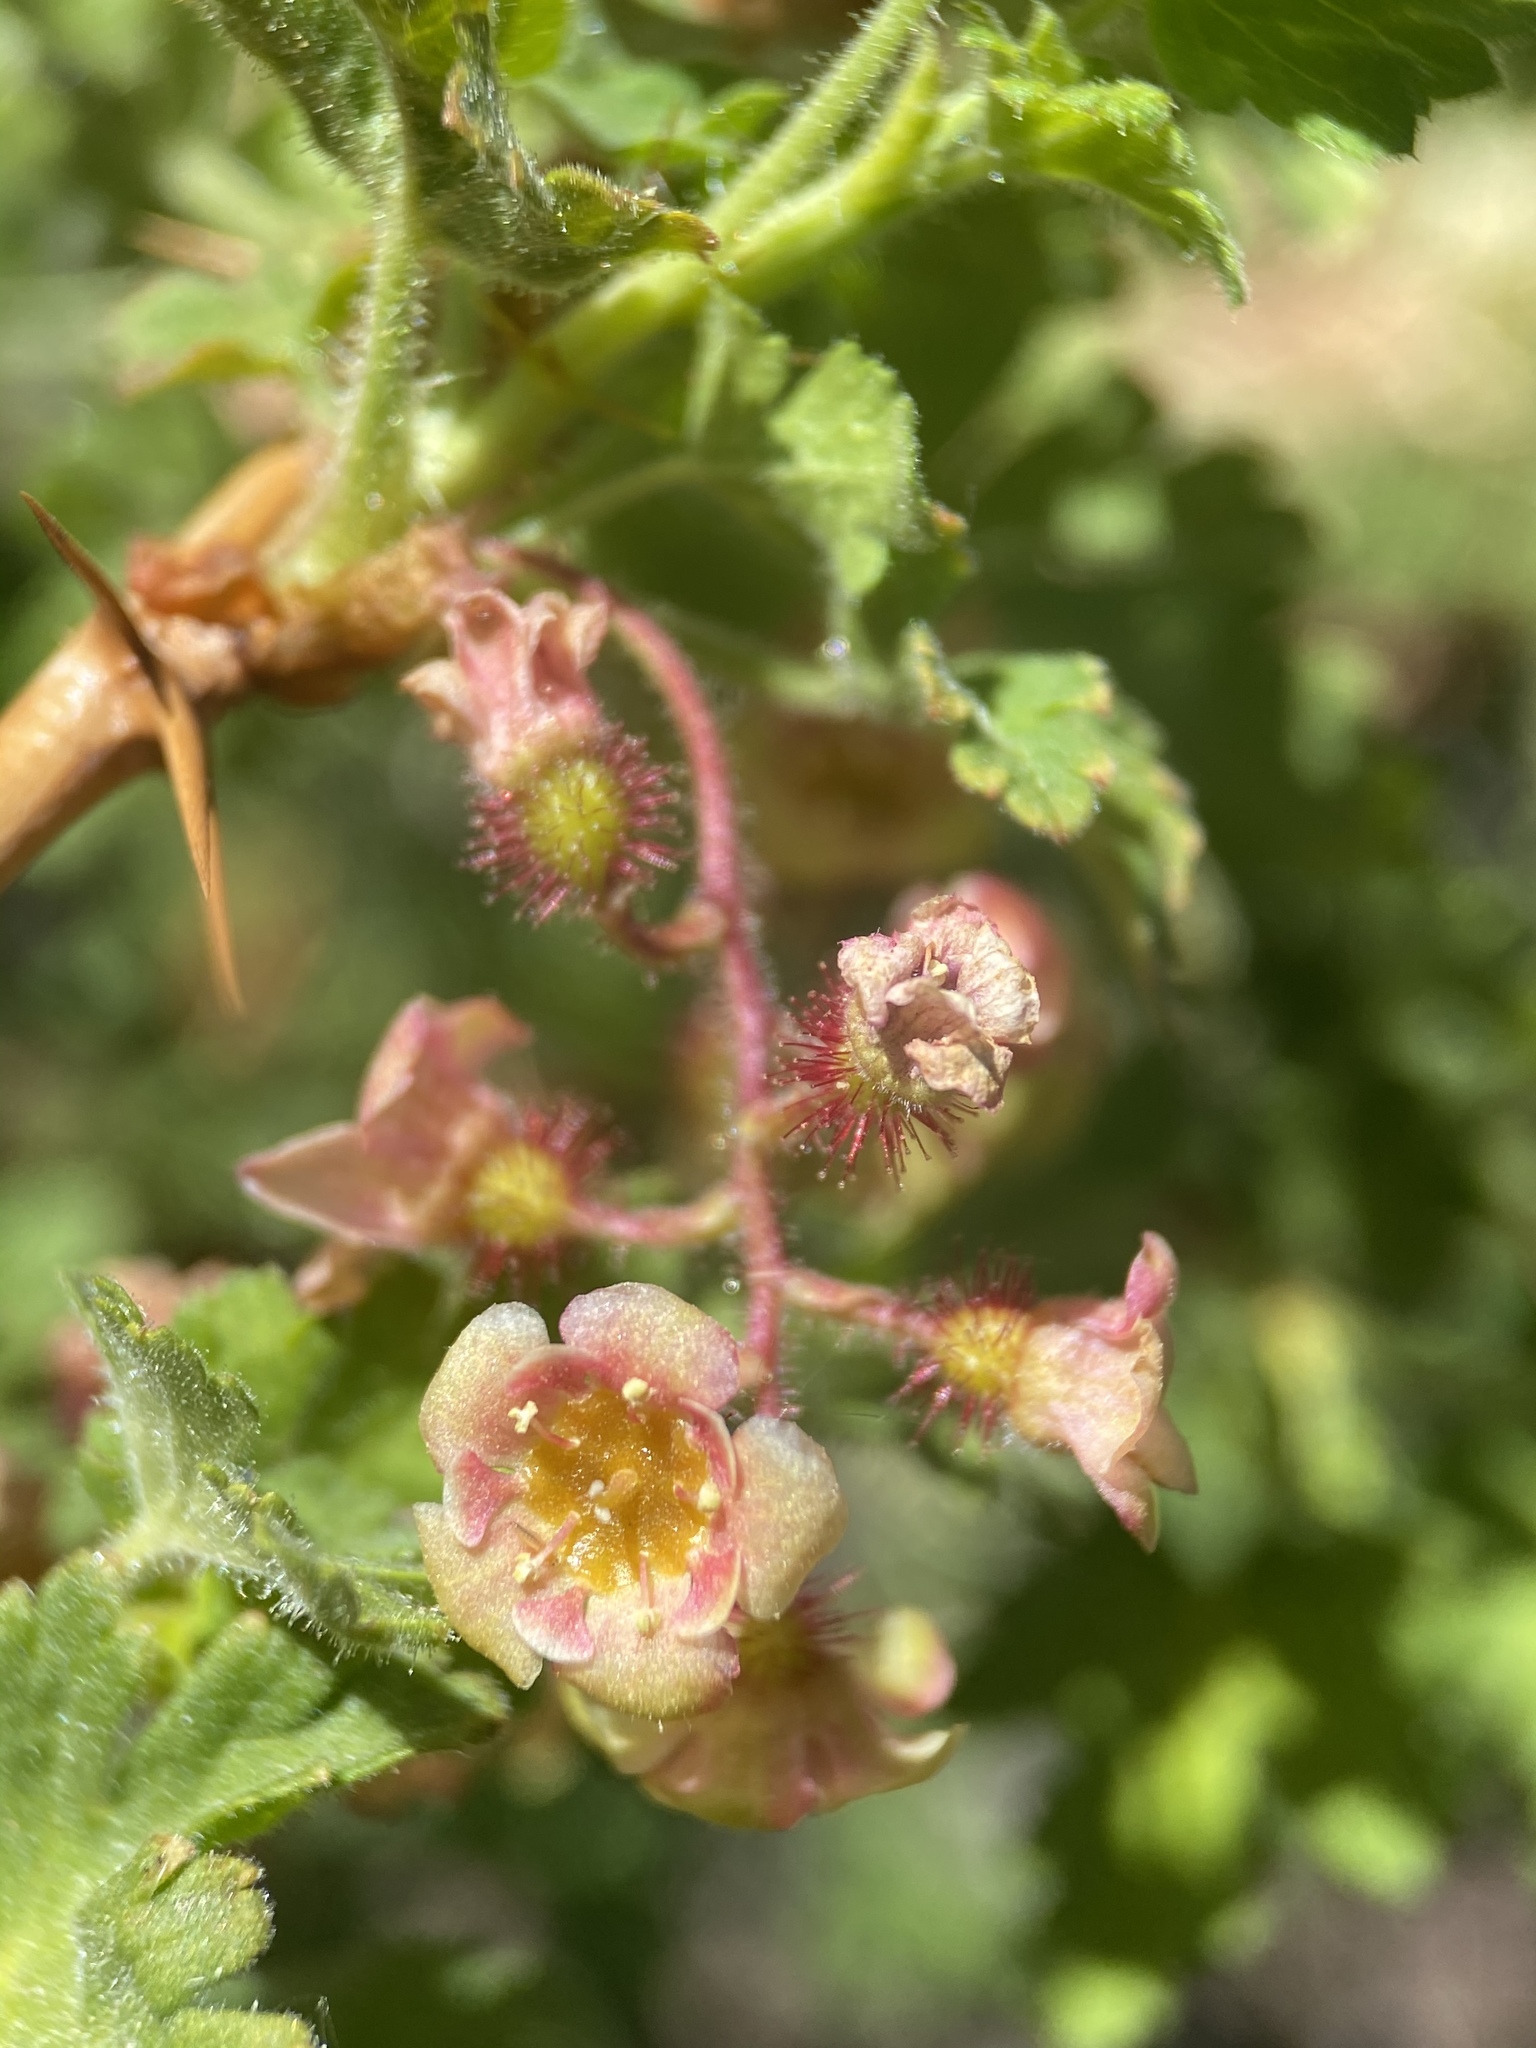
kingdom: Plantae
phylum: Tracheophyta
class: Magnoliopsida
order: Saxifragales
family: Grossulariaceae
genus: Ribes
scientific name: Ribes montigenum
